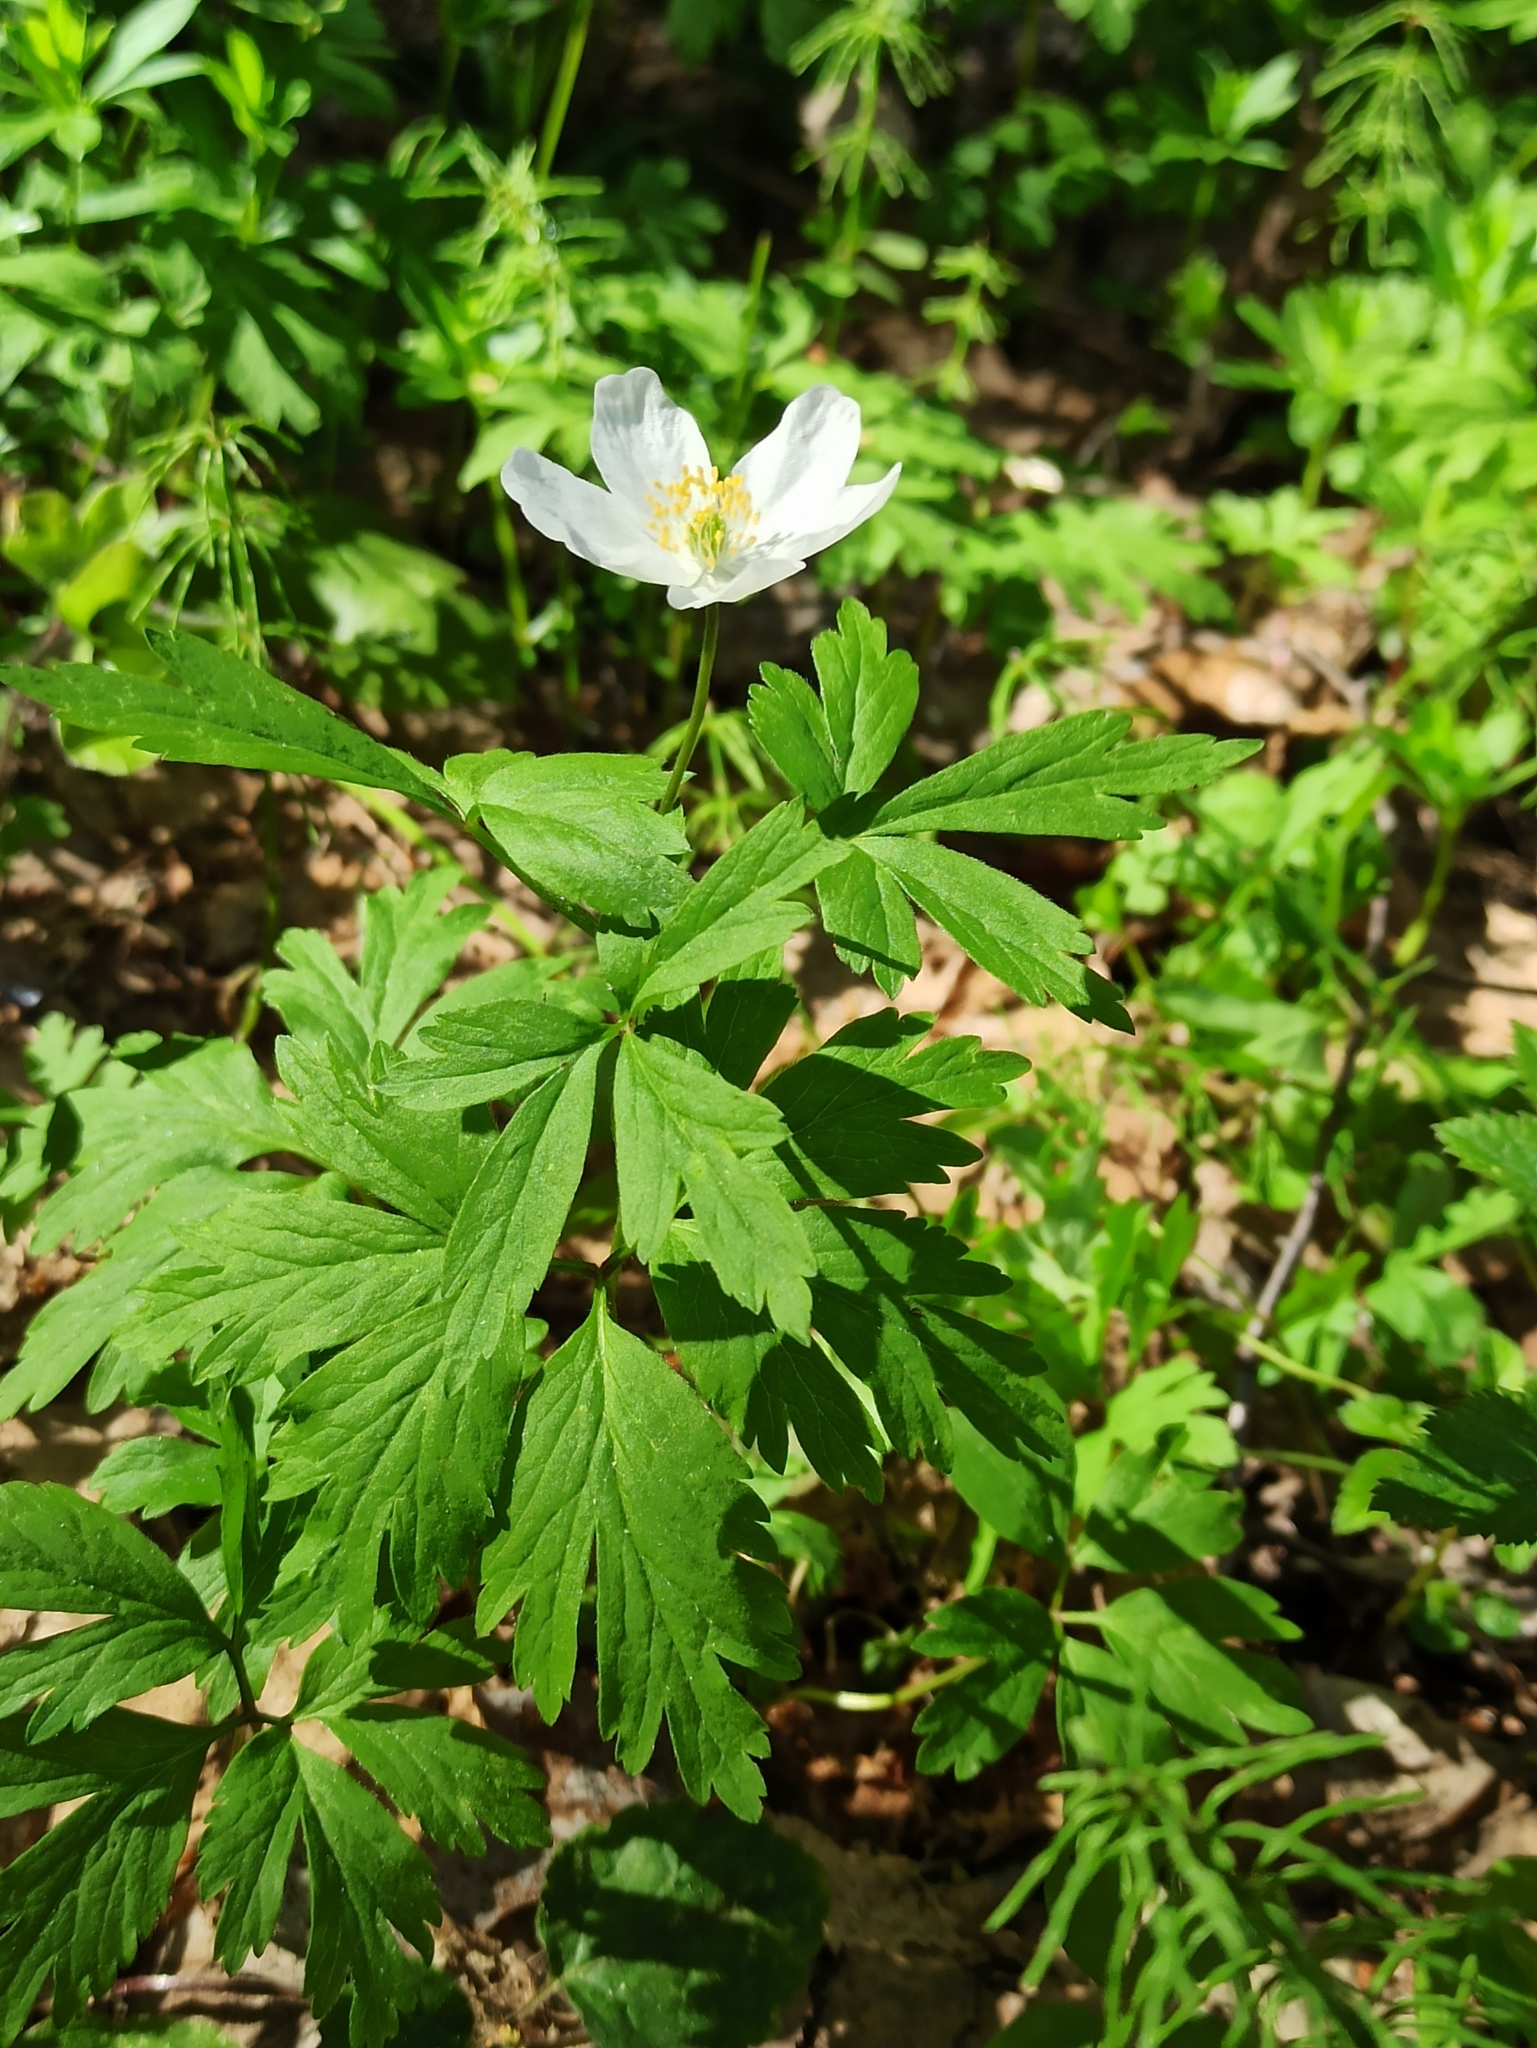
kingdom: Plantae
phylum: Tracheophyta
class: Magnoliopsida
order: Ranunculales
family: Ranunculaceae
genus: Anemone
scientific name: Anemone nemorosa
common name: Wood anemone
